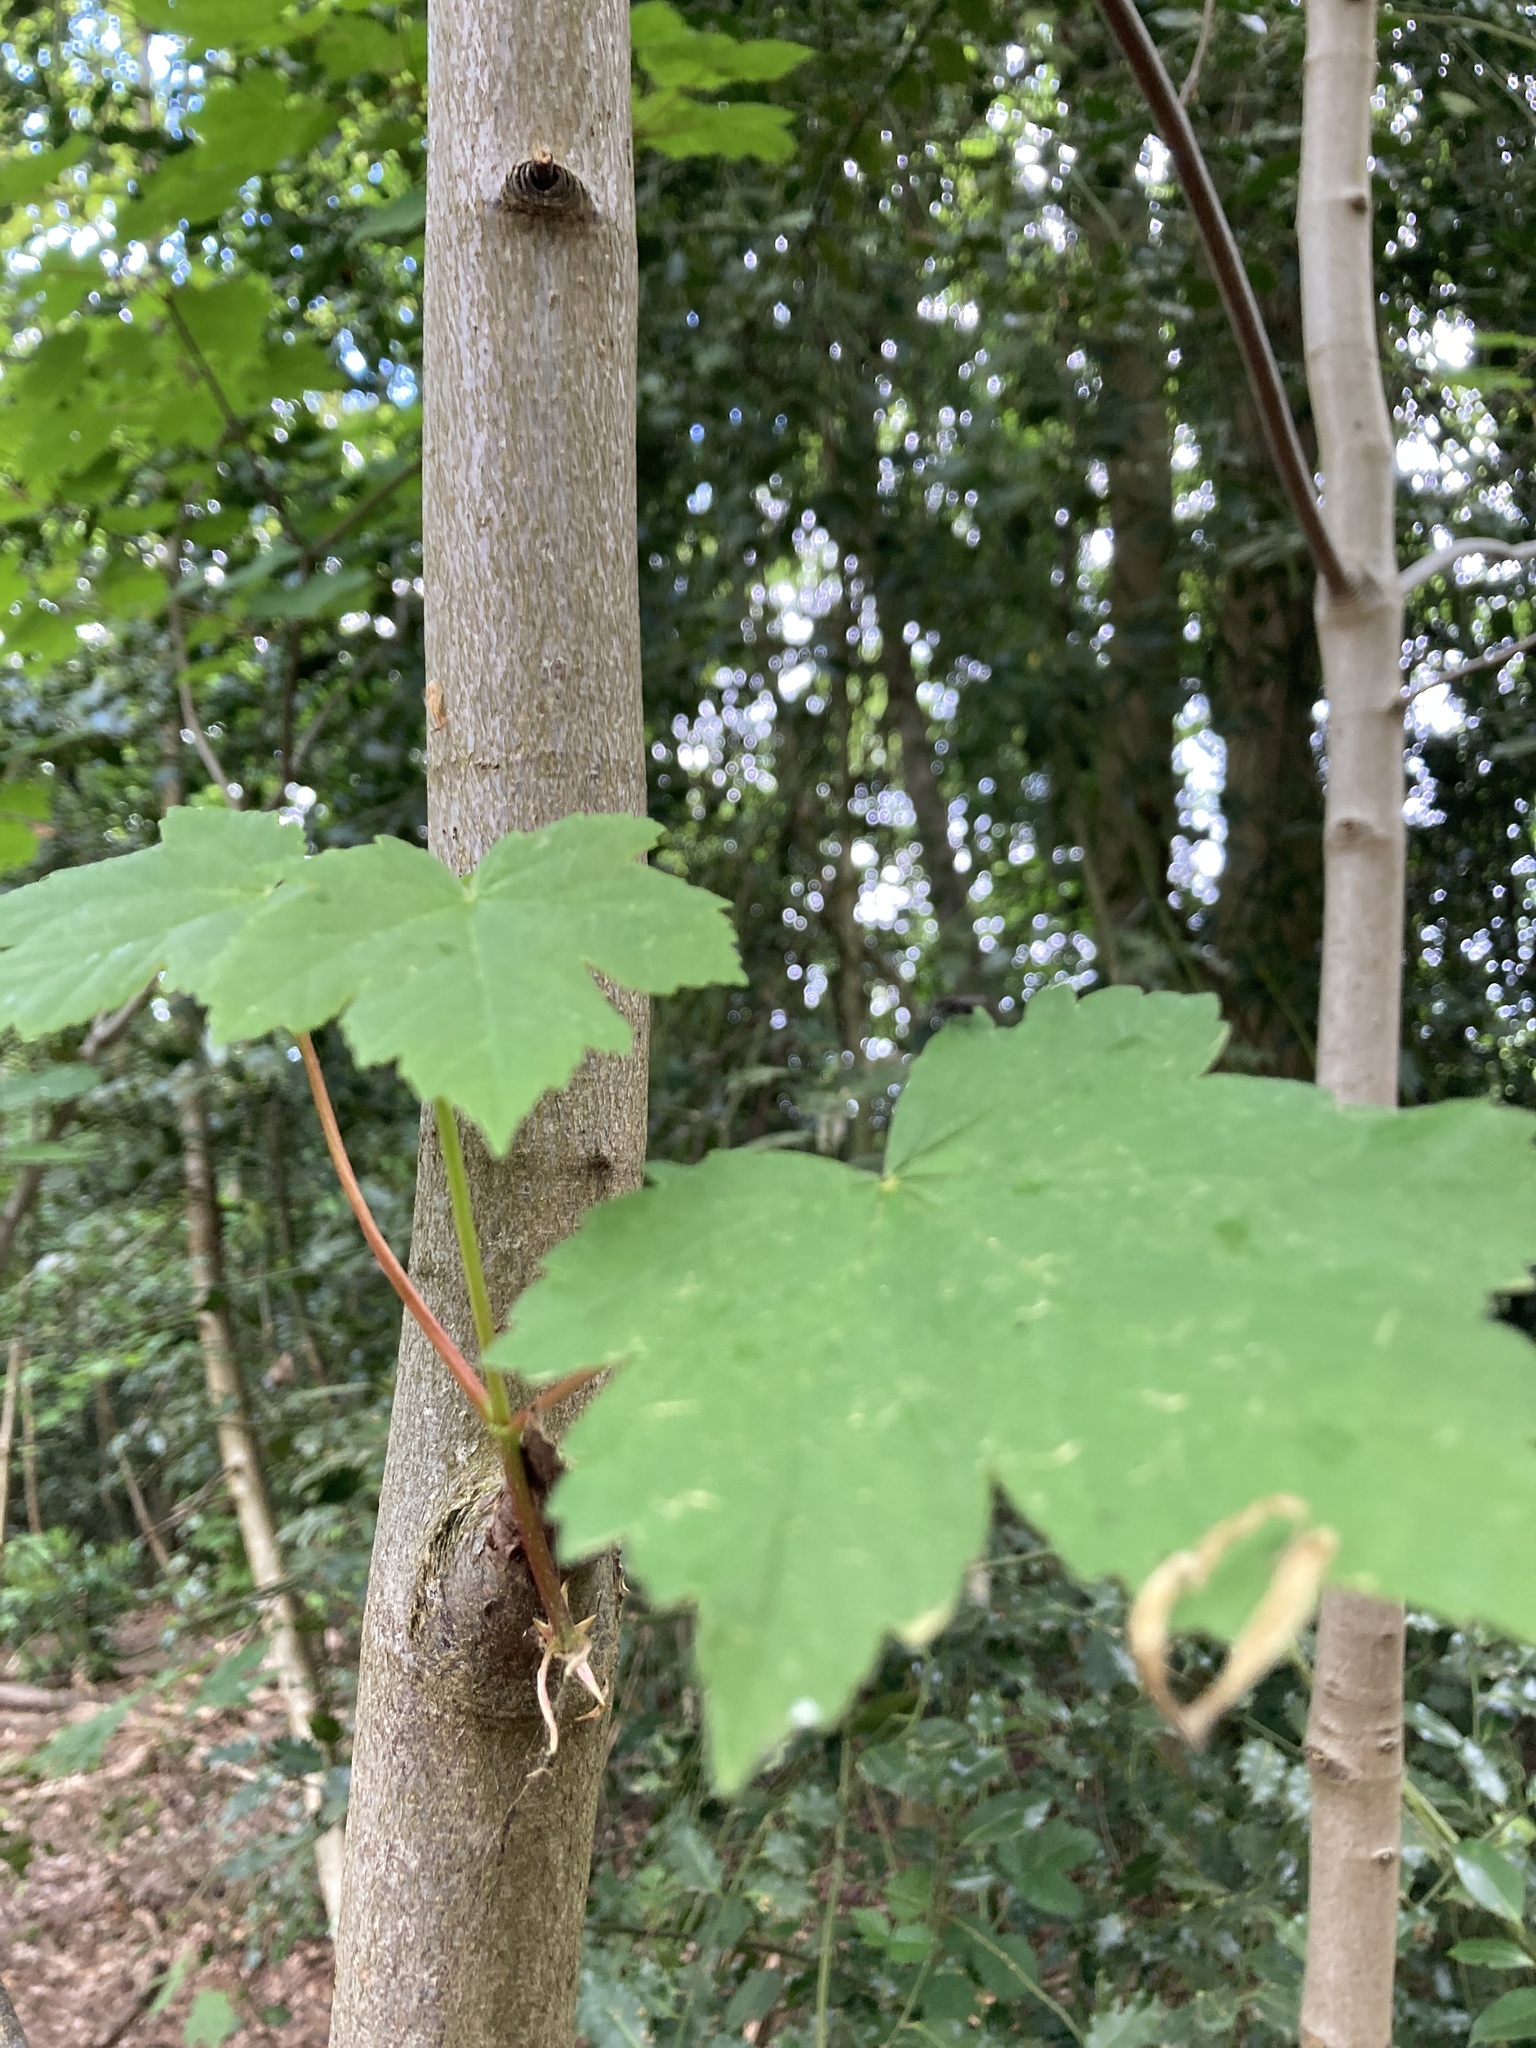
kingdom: Plantae
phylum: Tracheophyta
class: Magnoliopsida
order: Sapindales
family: Sapindaceae
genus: Acer
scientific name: Acer pseudoplatanus
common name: Sycamore
